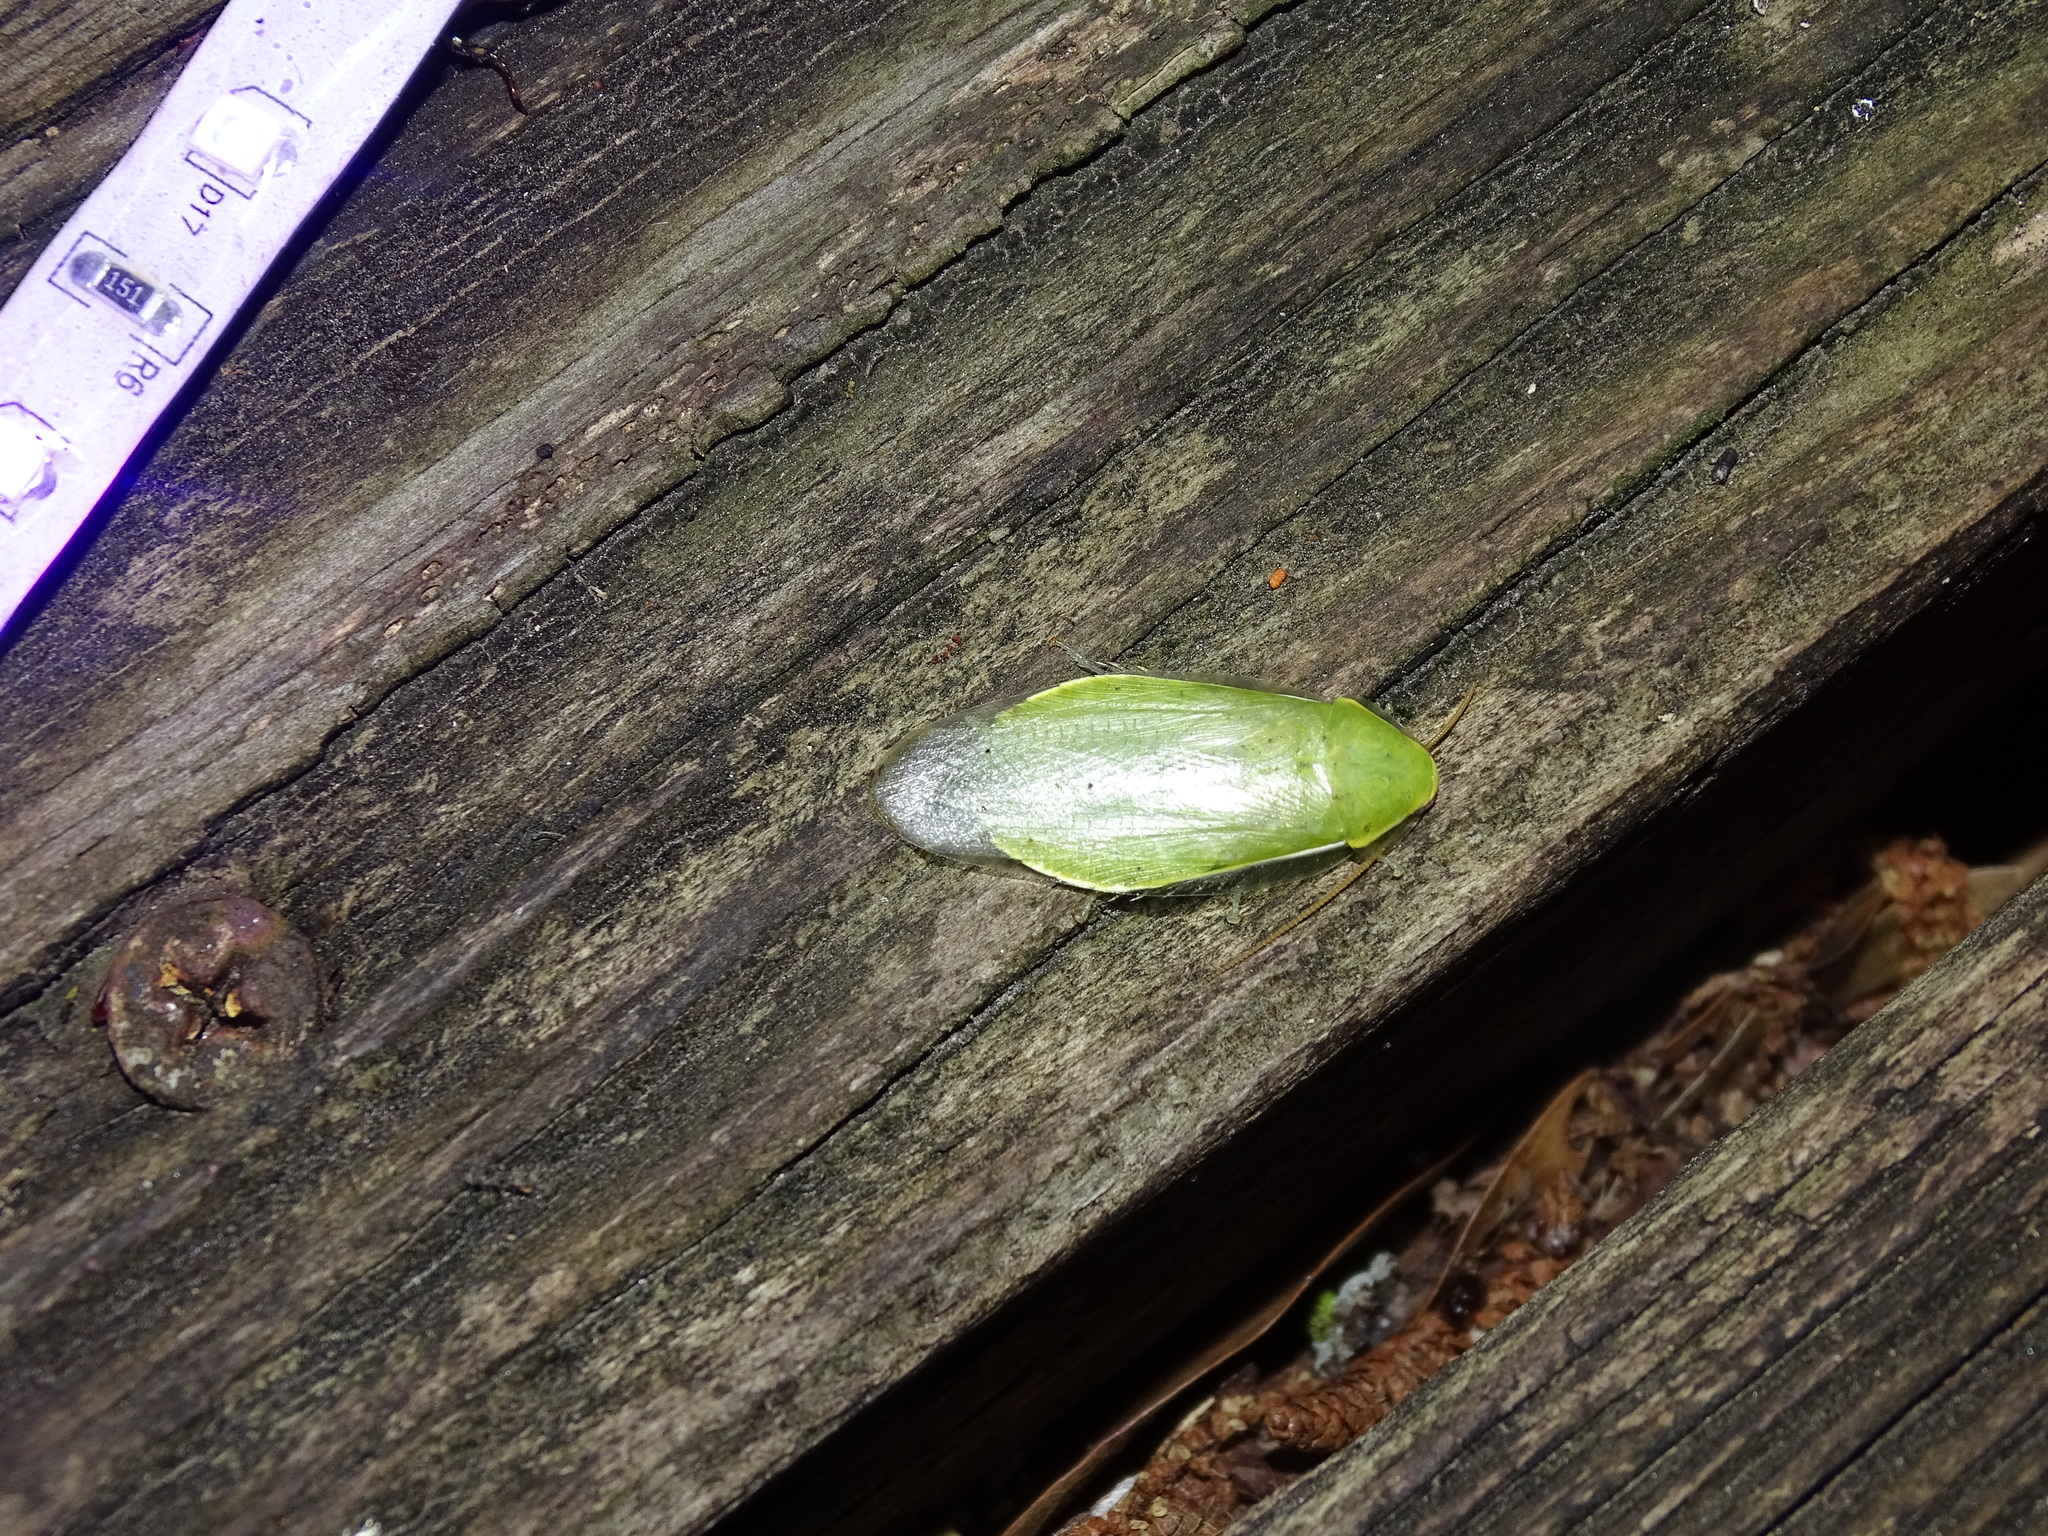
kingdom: Animalia
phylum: Arthropoda
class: Insecta
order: Blattodea
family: Blaberidae
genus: Panchlora
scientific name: Panchlora nivea
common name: Cuban cockroach
